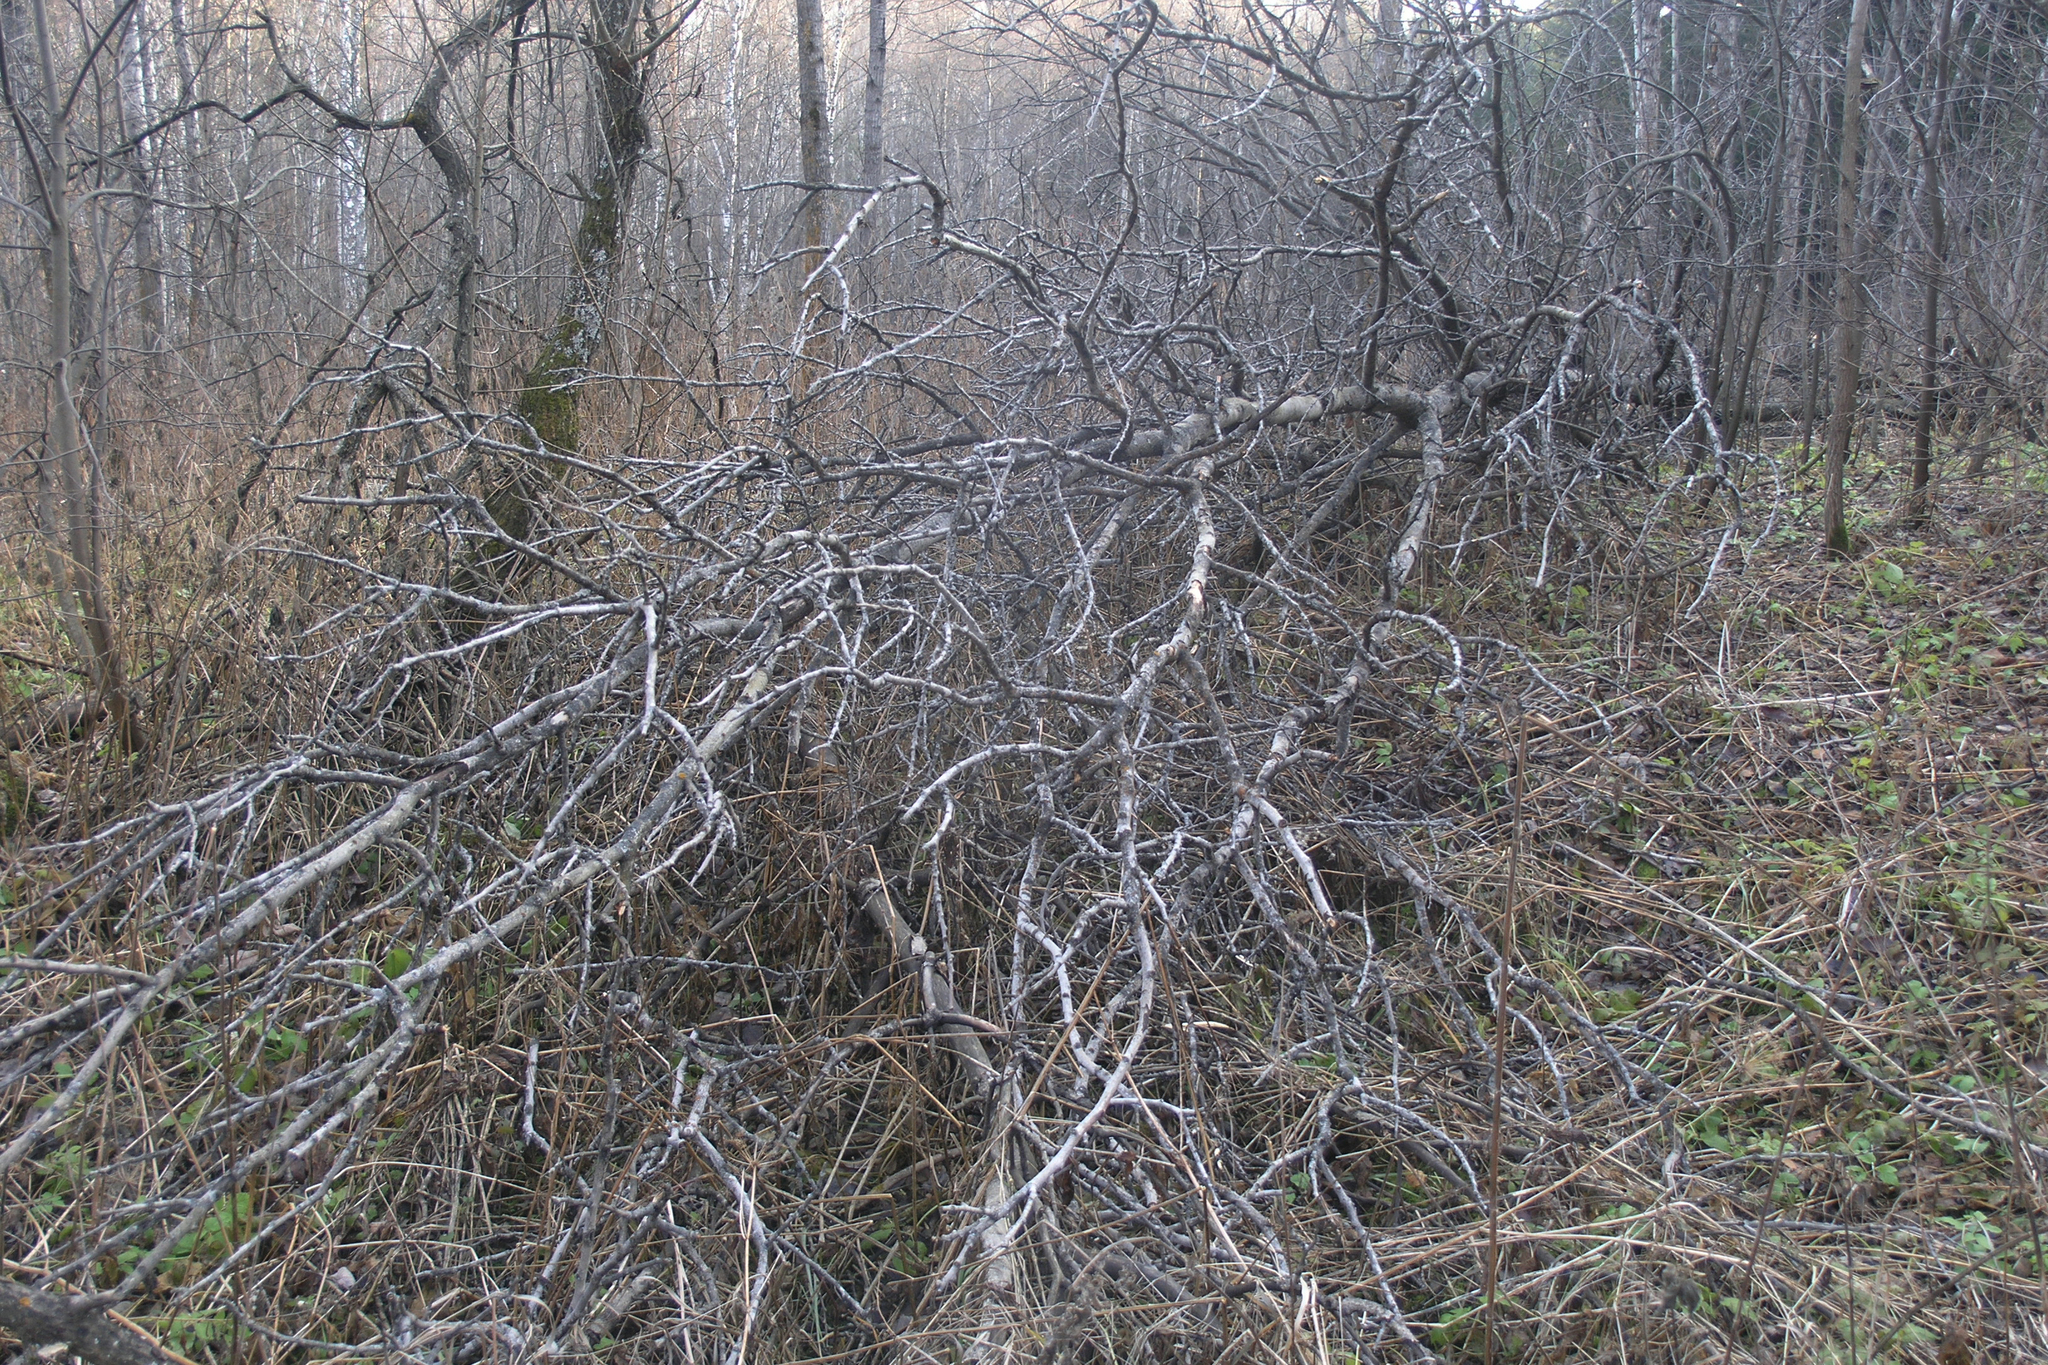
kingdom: Plantae
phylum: Tracheophyta
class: Magnoliopsida
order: Malpighiales
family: Salicaceae
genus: Populus
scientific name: Populus tremula
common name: European aspen
